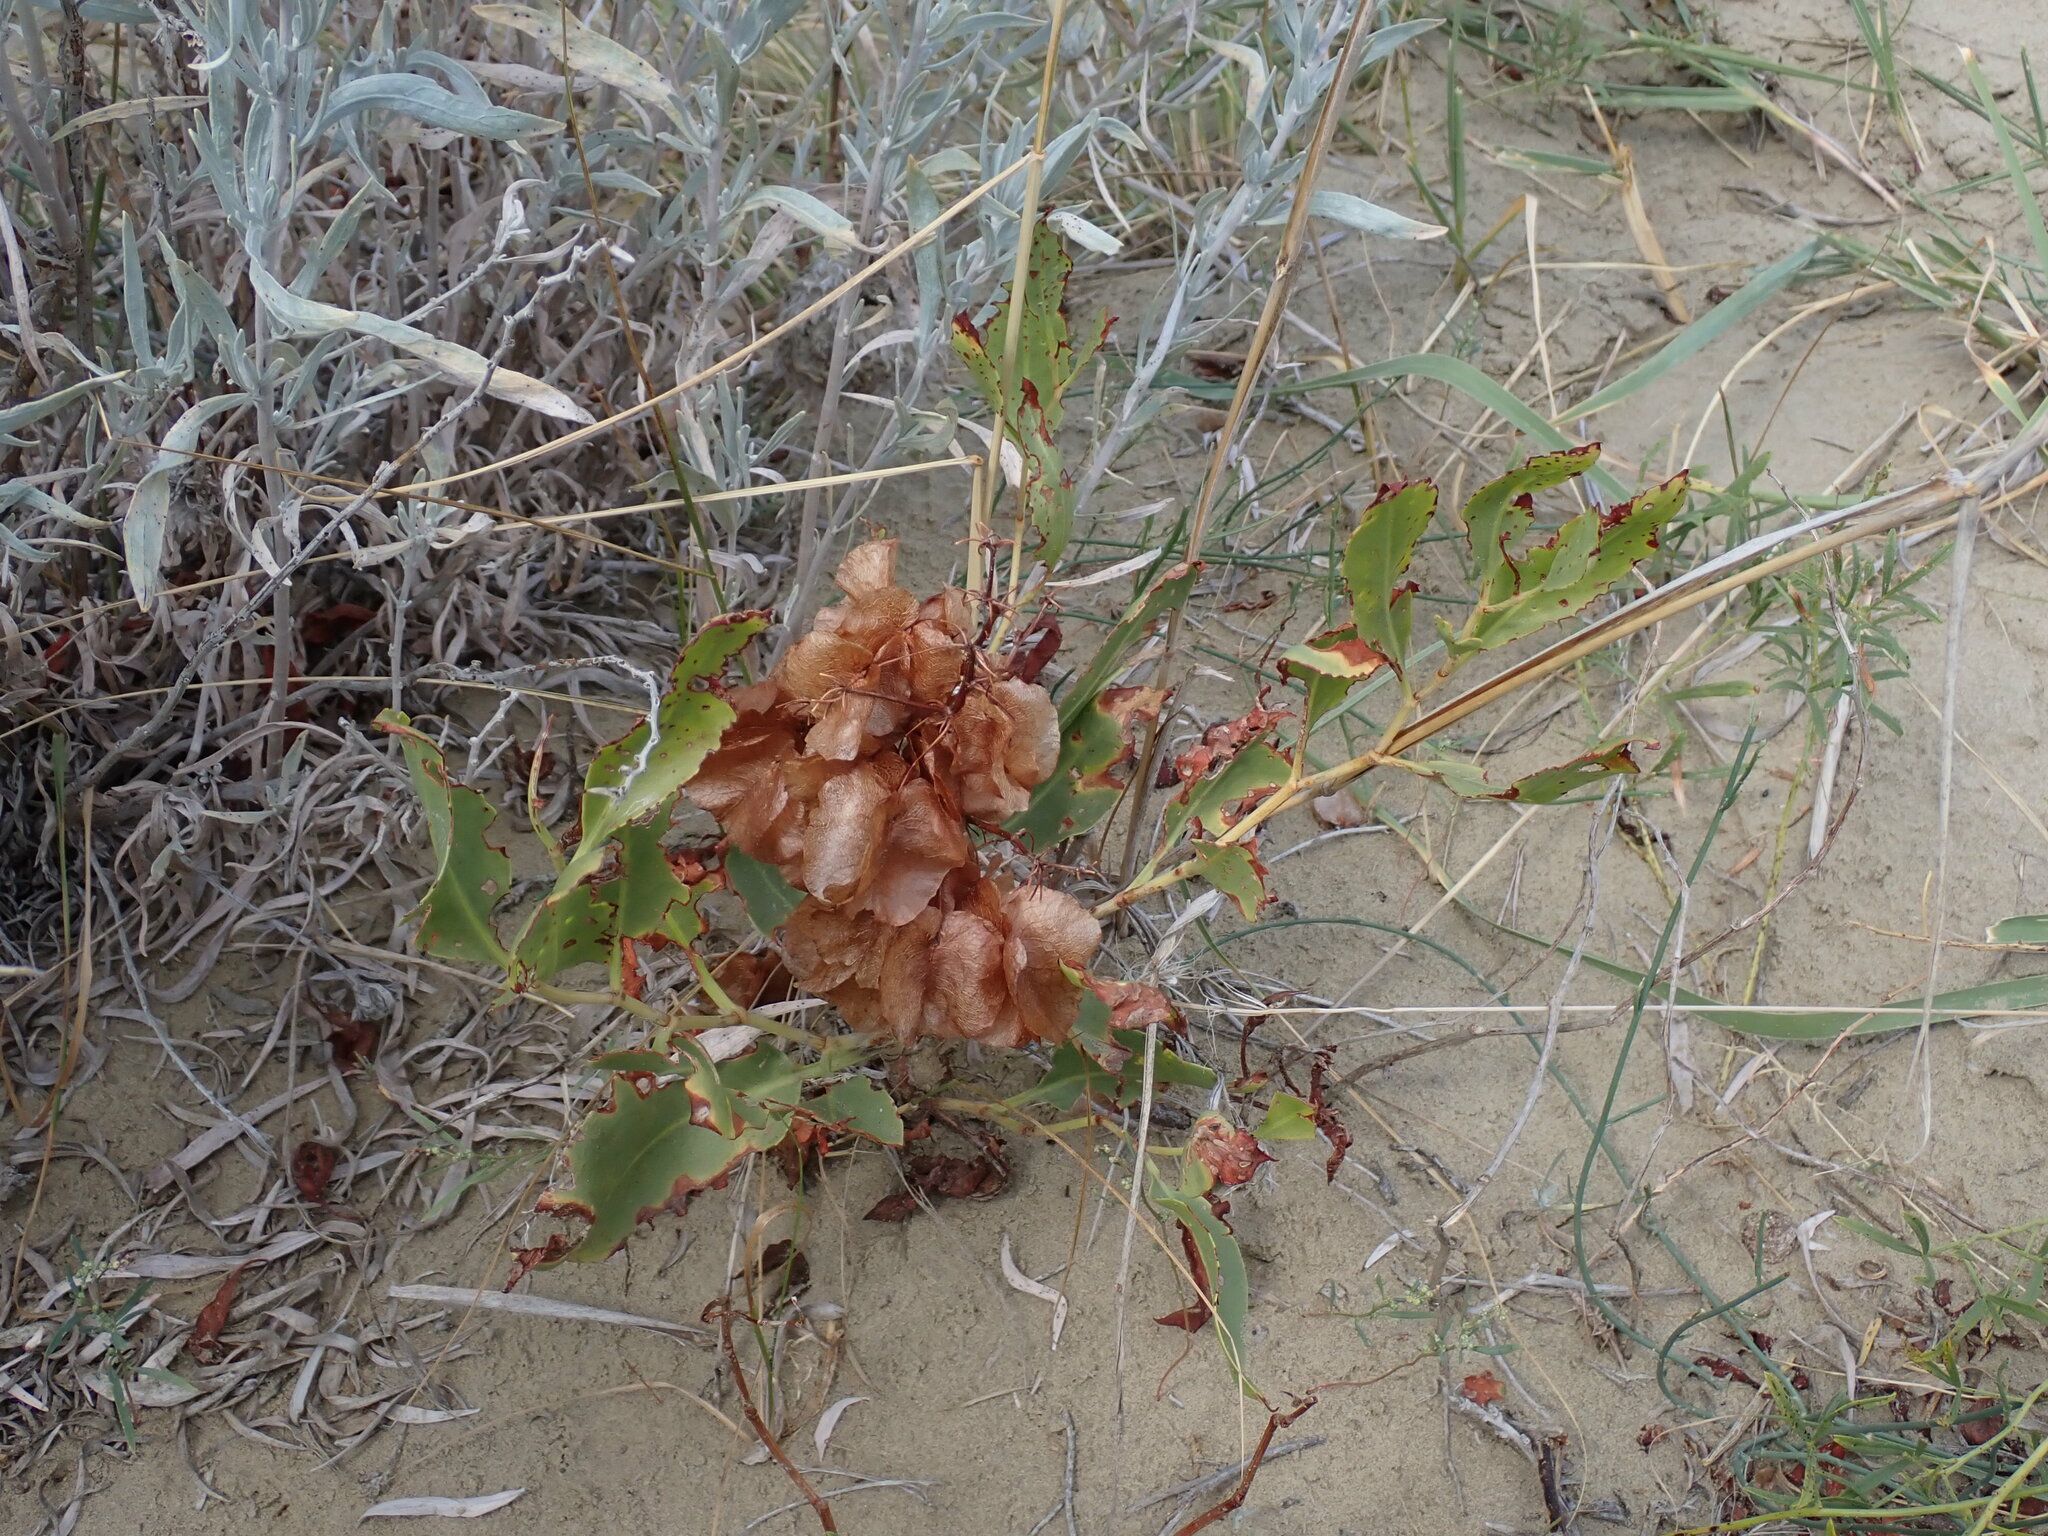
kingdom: Plantae
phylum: Tracheophyta
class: Magnoliopsida
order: Caryophyllales
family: Polygonaceae
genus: Rumex
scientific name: Rumex venosus
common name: Winged dock
